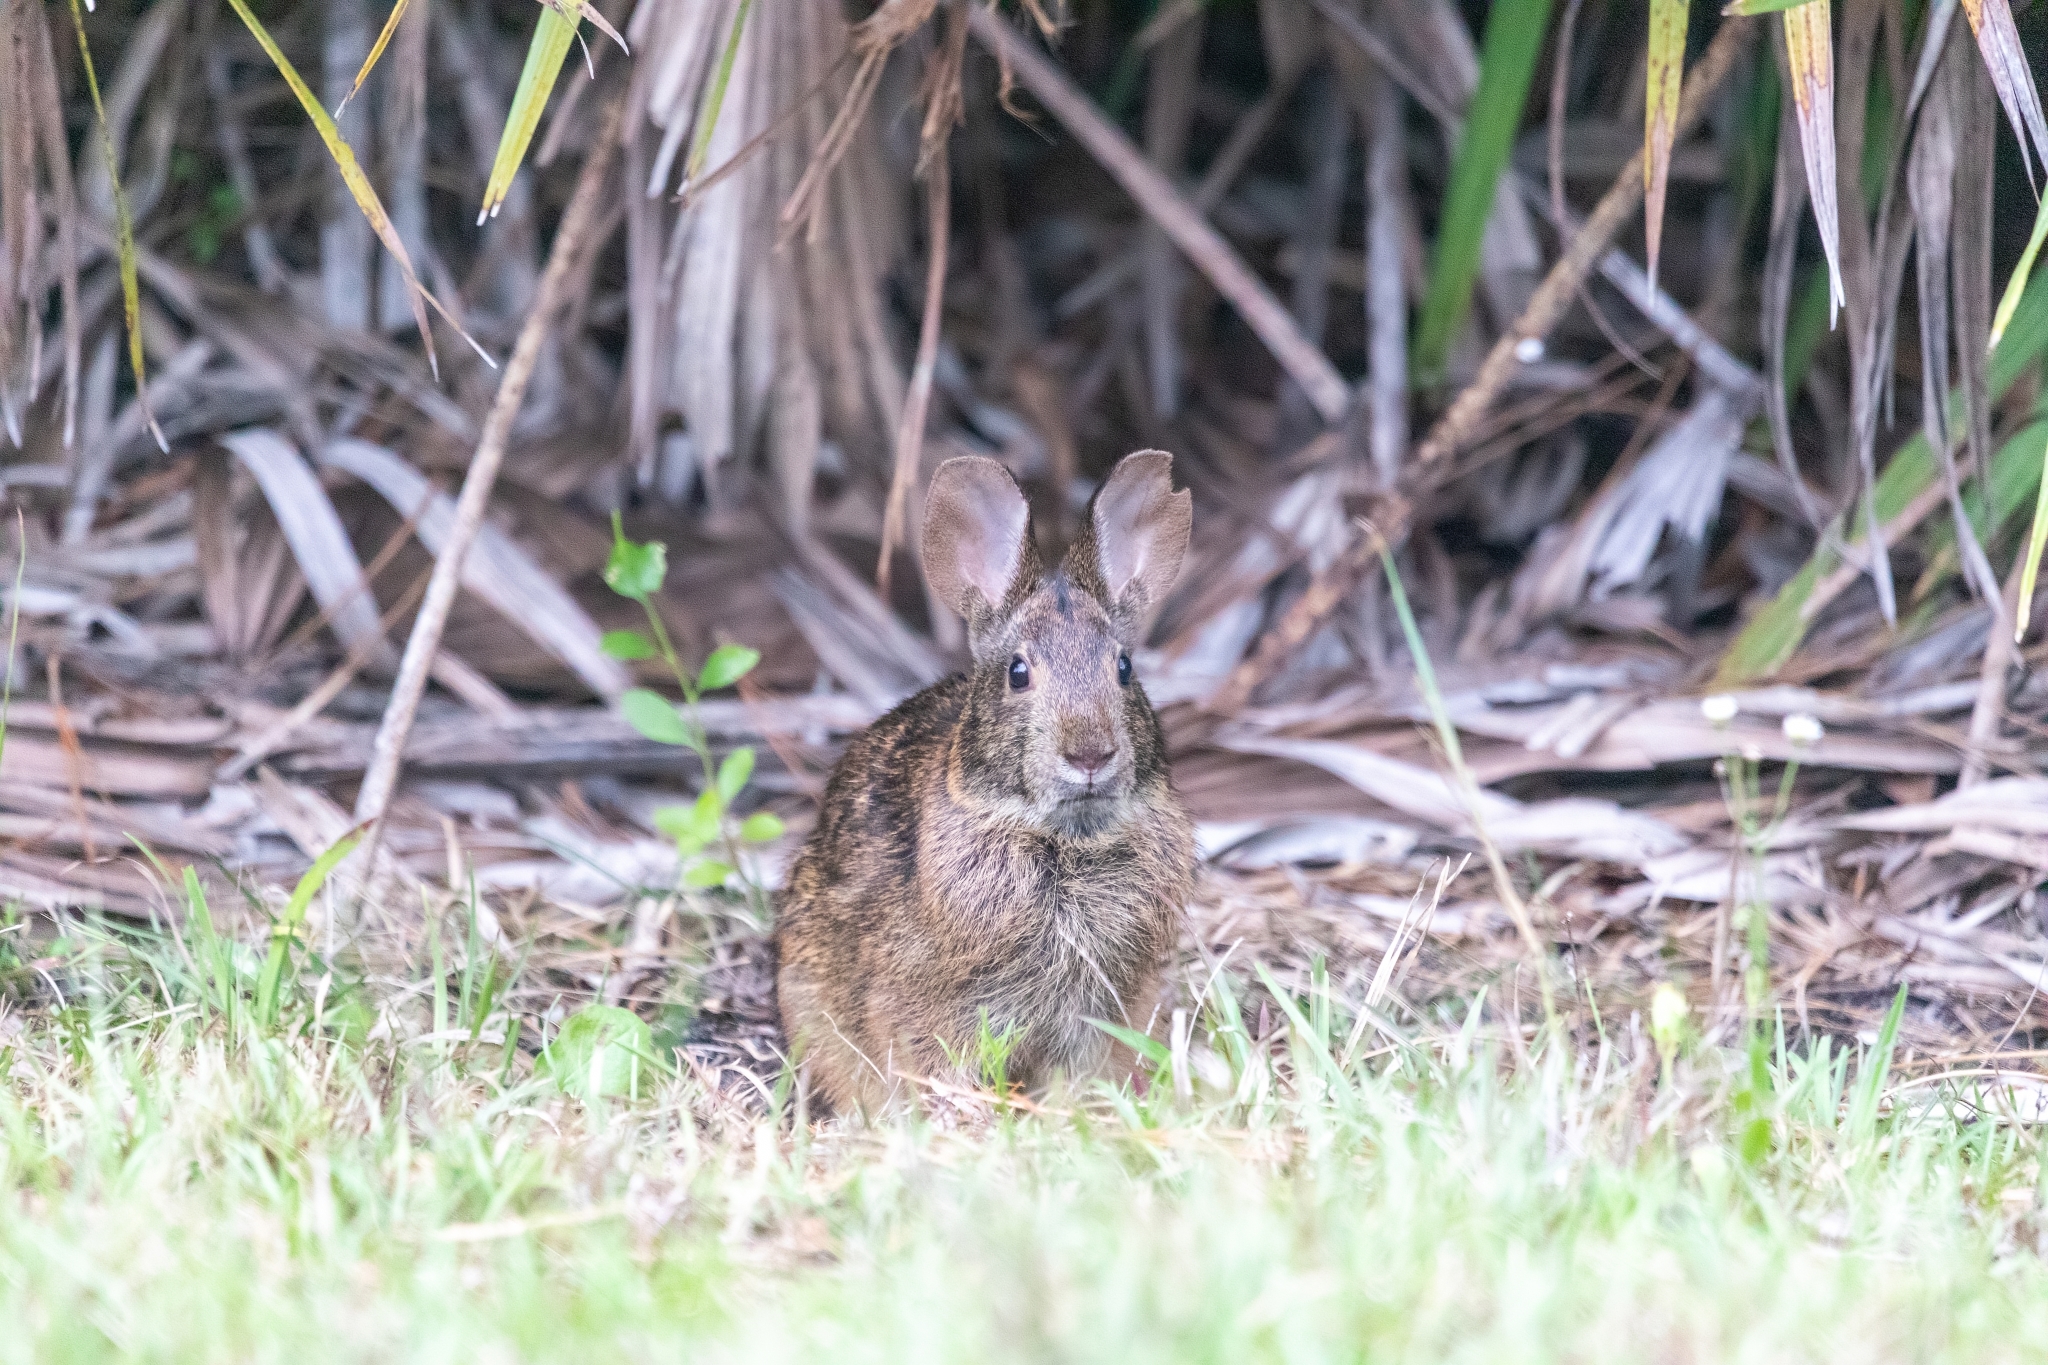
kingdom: Animalia
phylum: Chordata
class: Mammalia
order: Lagomorpha
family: Leporidae
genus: Sylvilagus
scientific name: Sylvilagus palustris
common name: Marsh rabbit
